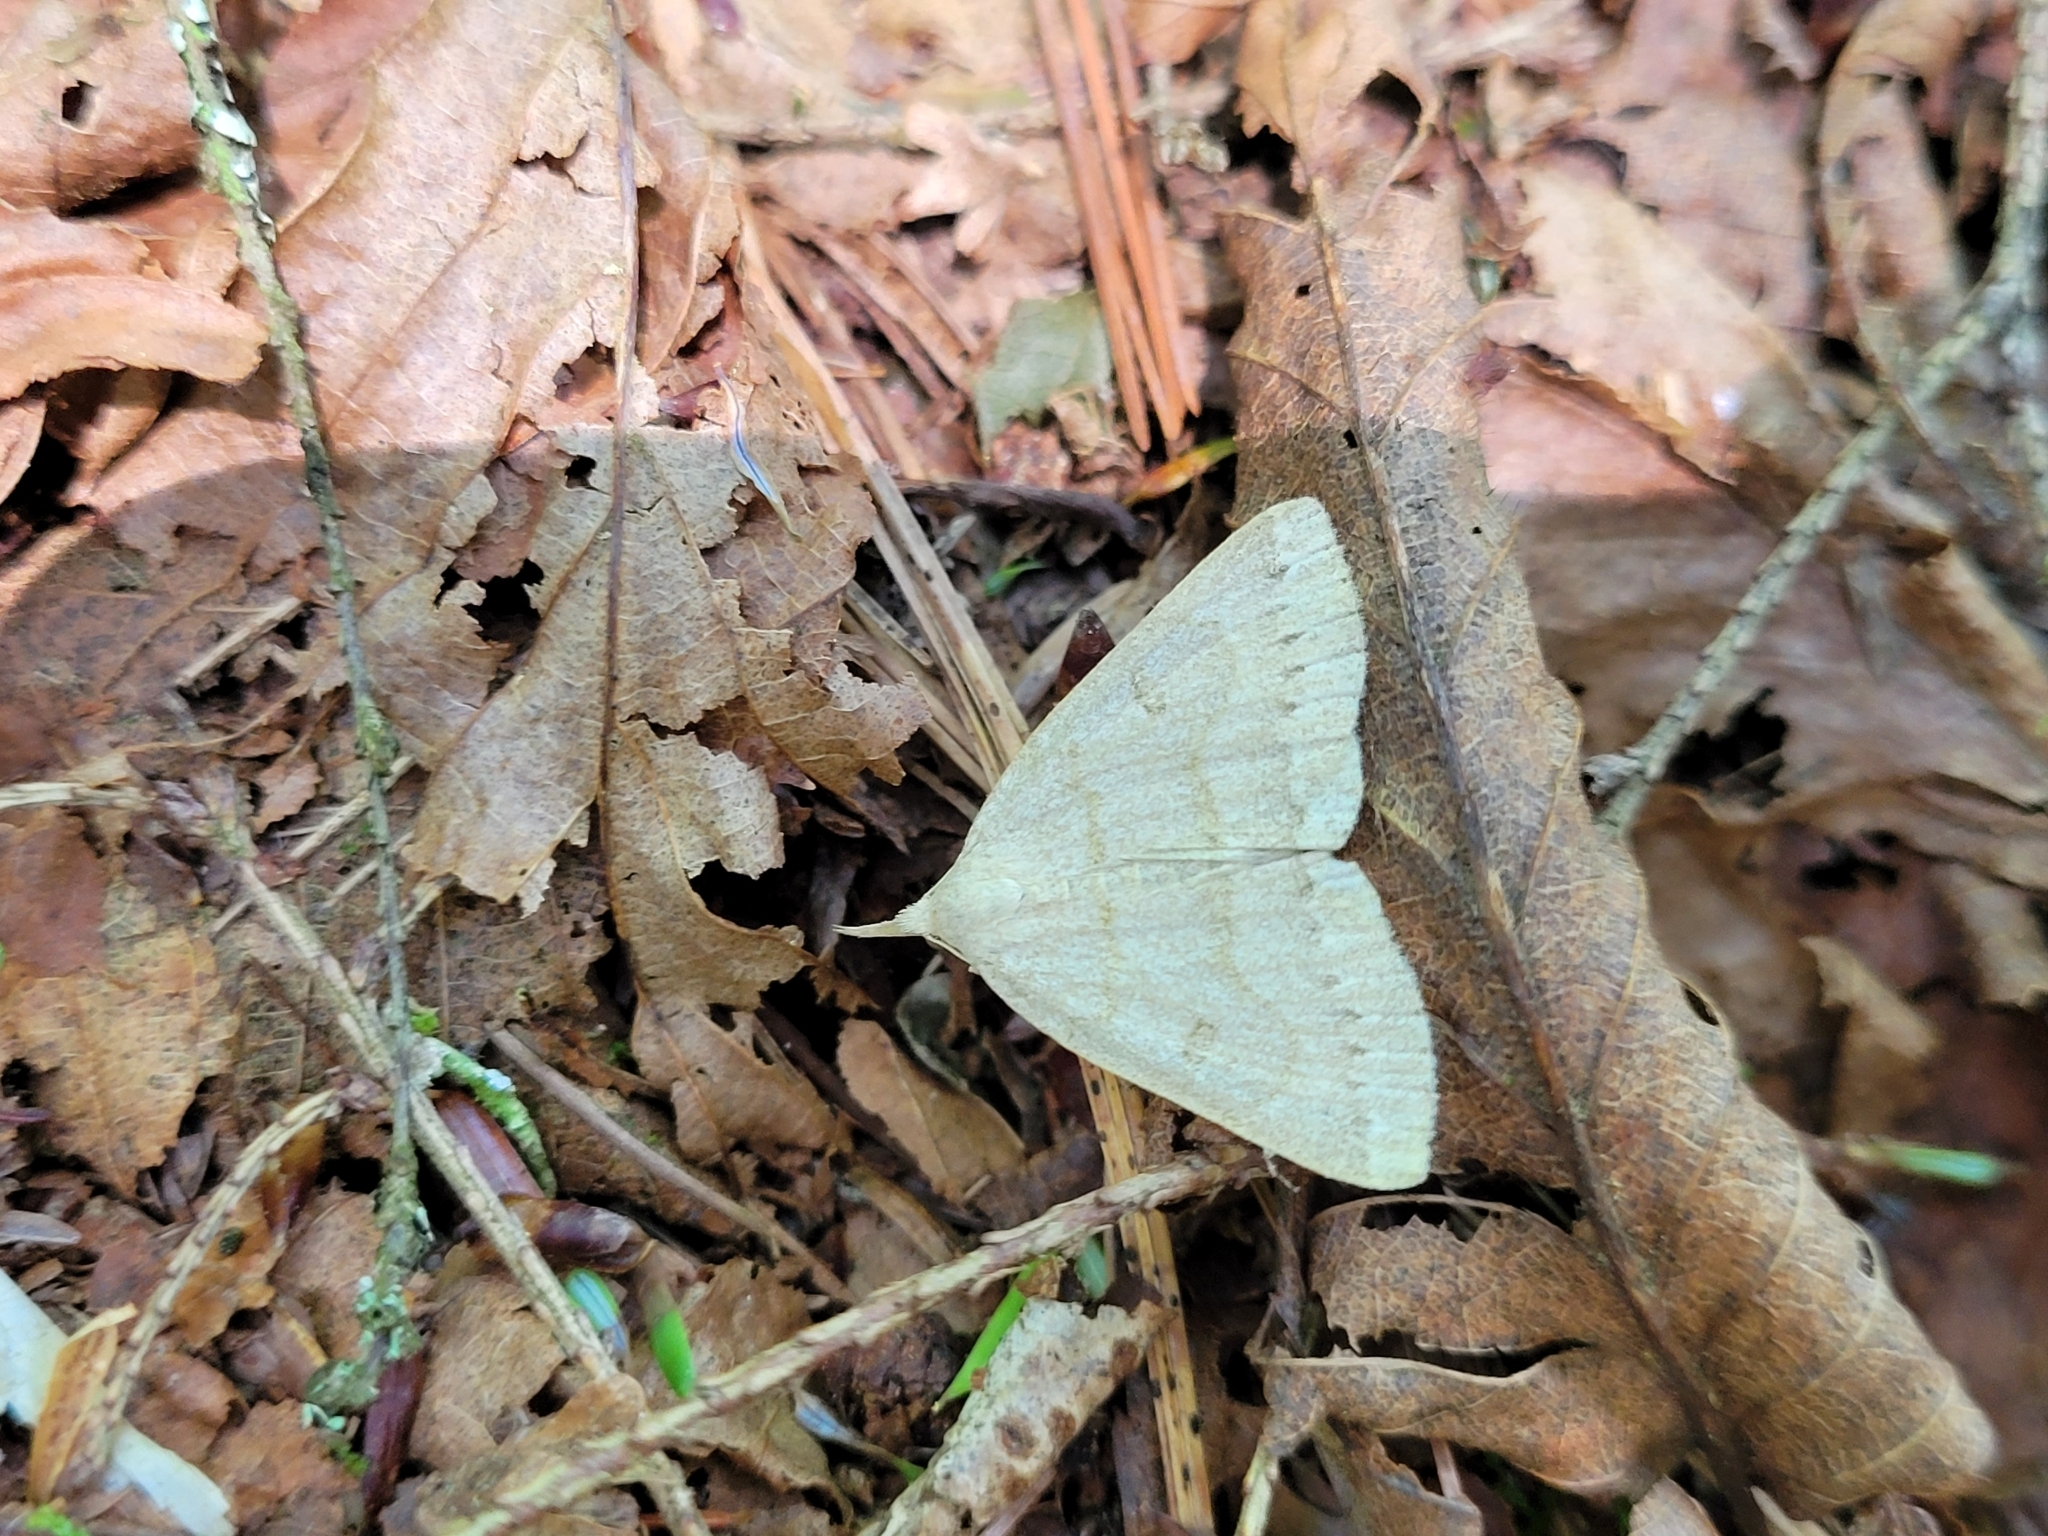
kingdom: Animalia
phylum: Arthropoda
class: Insecta
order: Lepidoptera
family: Erebidae
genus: Macrochilo
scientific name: Macrochilo morbidalis
